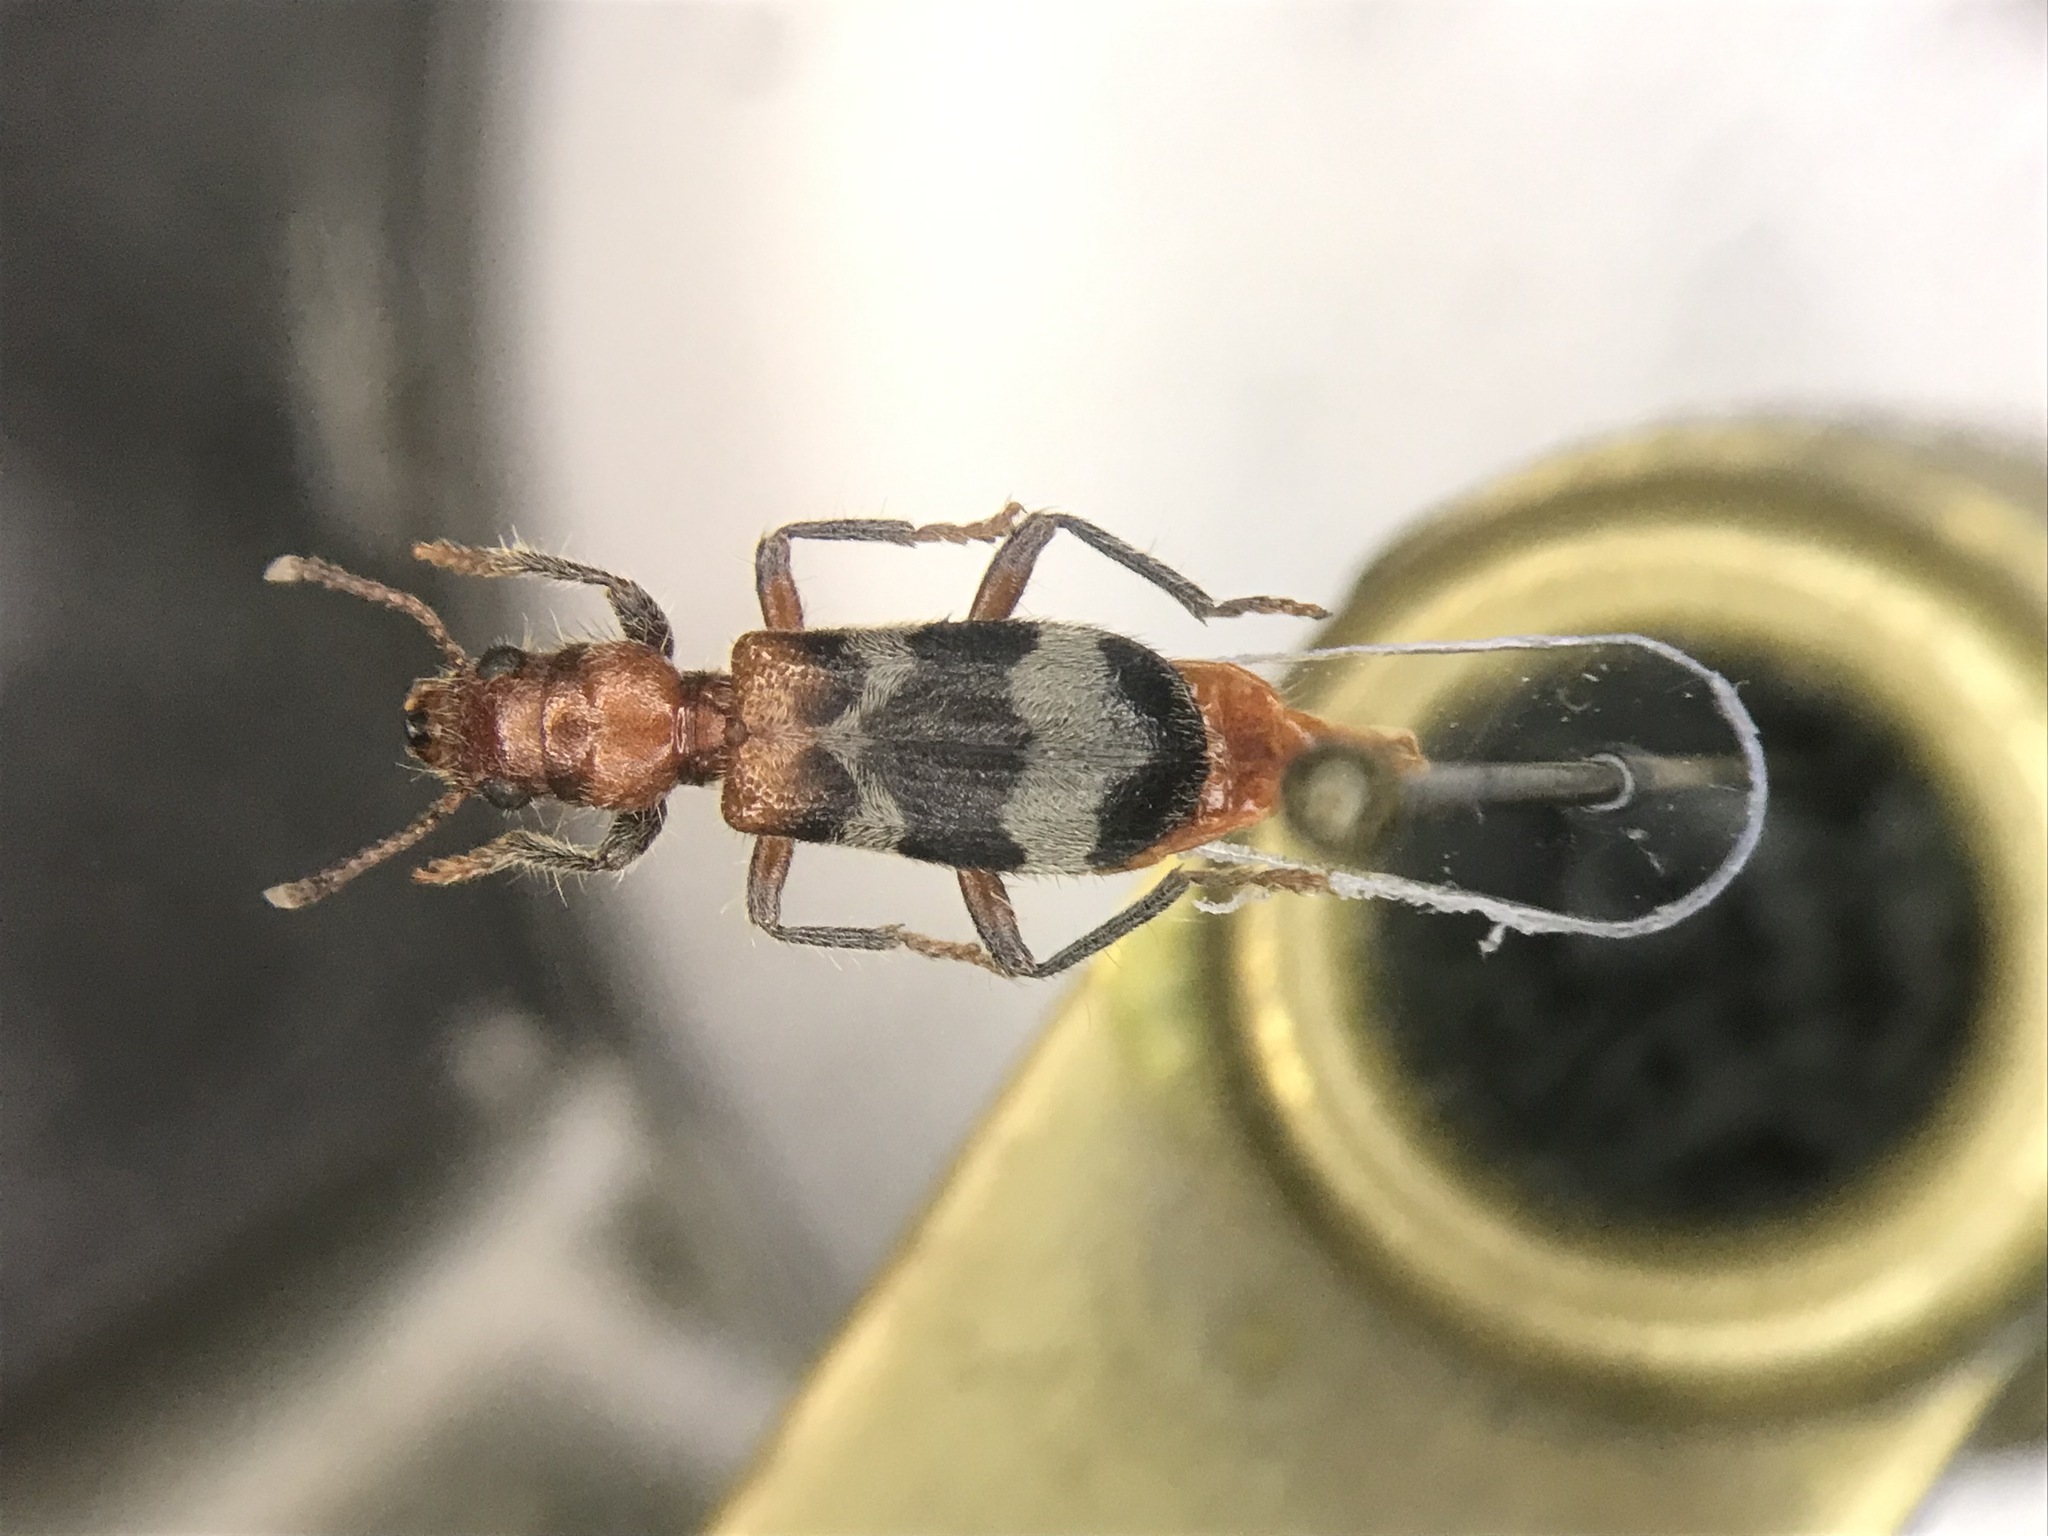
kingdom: Animalia
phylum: Arthropoda
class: Insecta
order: Coleoptera
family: Cleridae
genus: Thanasimus
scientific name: Thanasimus dubius
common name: Wavering checkered beetle
